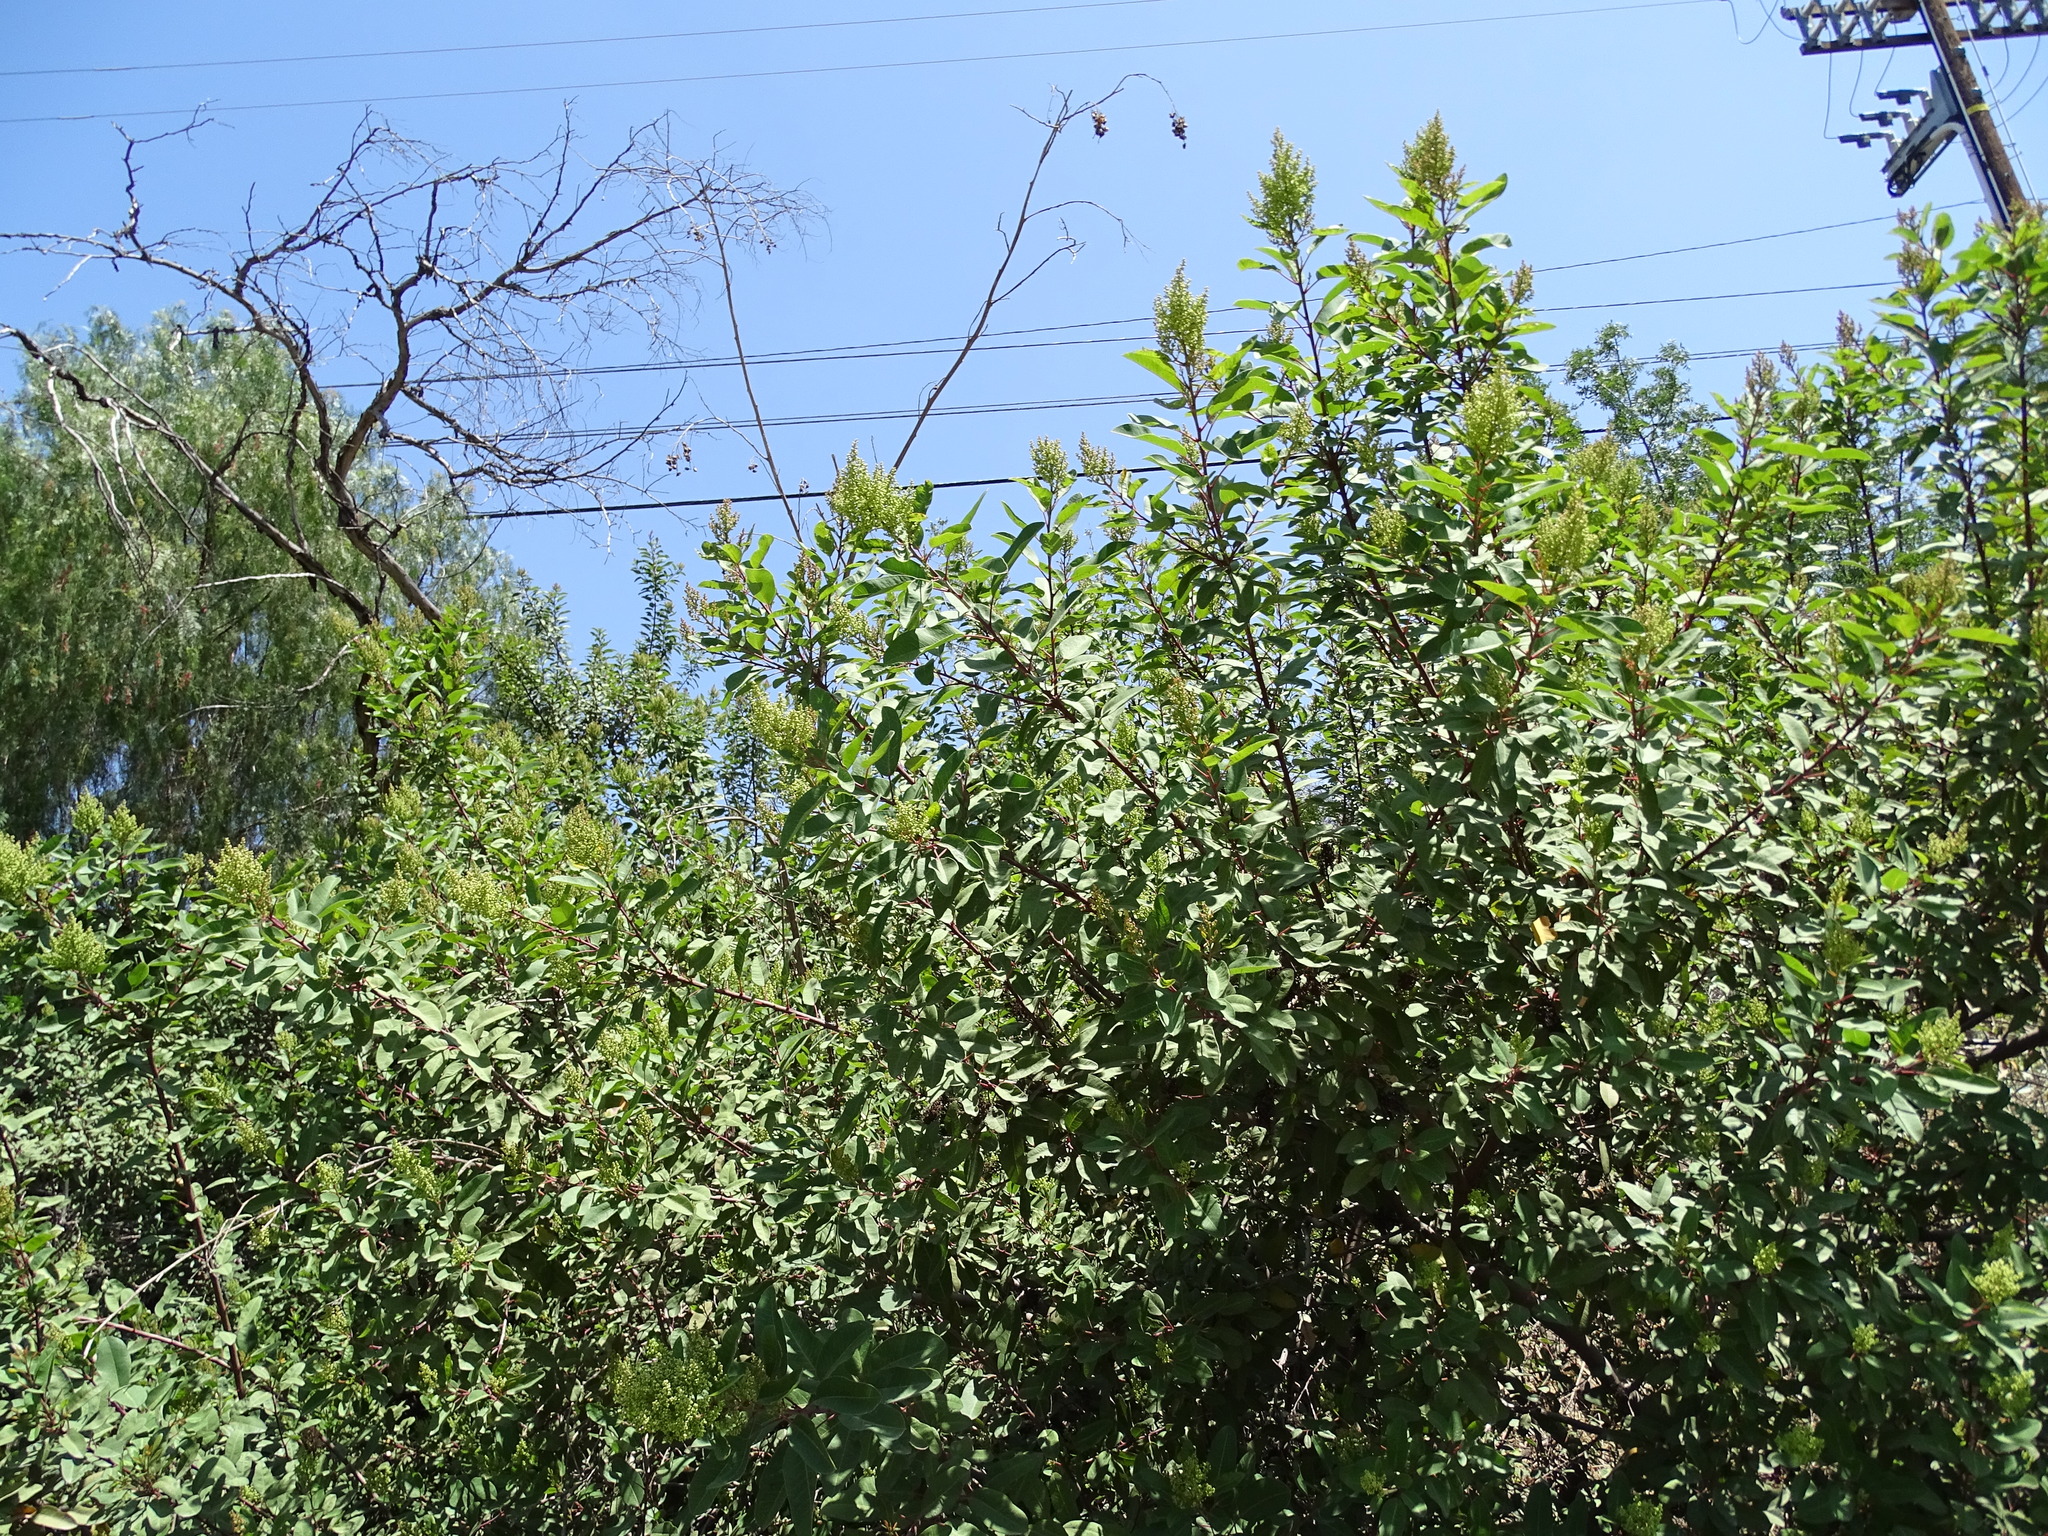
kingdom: Plantae
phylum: Tracheophyta
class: Magnoliopsida
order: Sapindales
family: Anacardiaceae
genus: Malosma
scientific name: Malosma laurina
